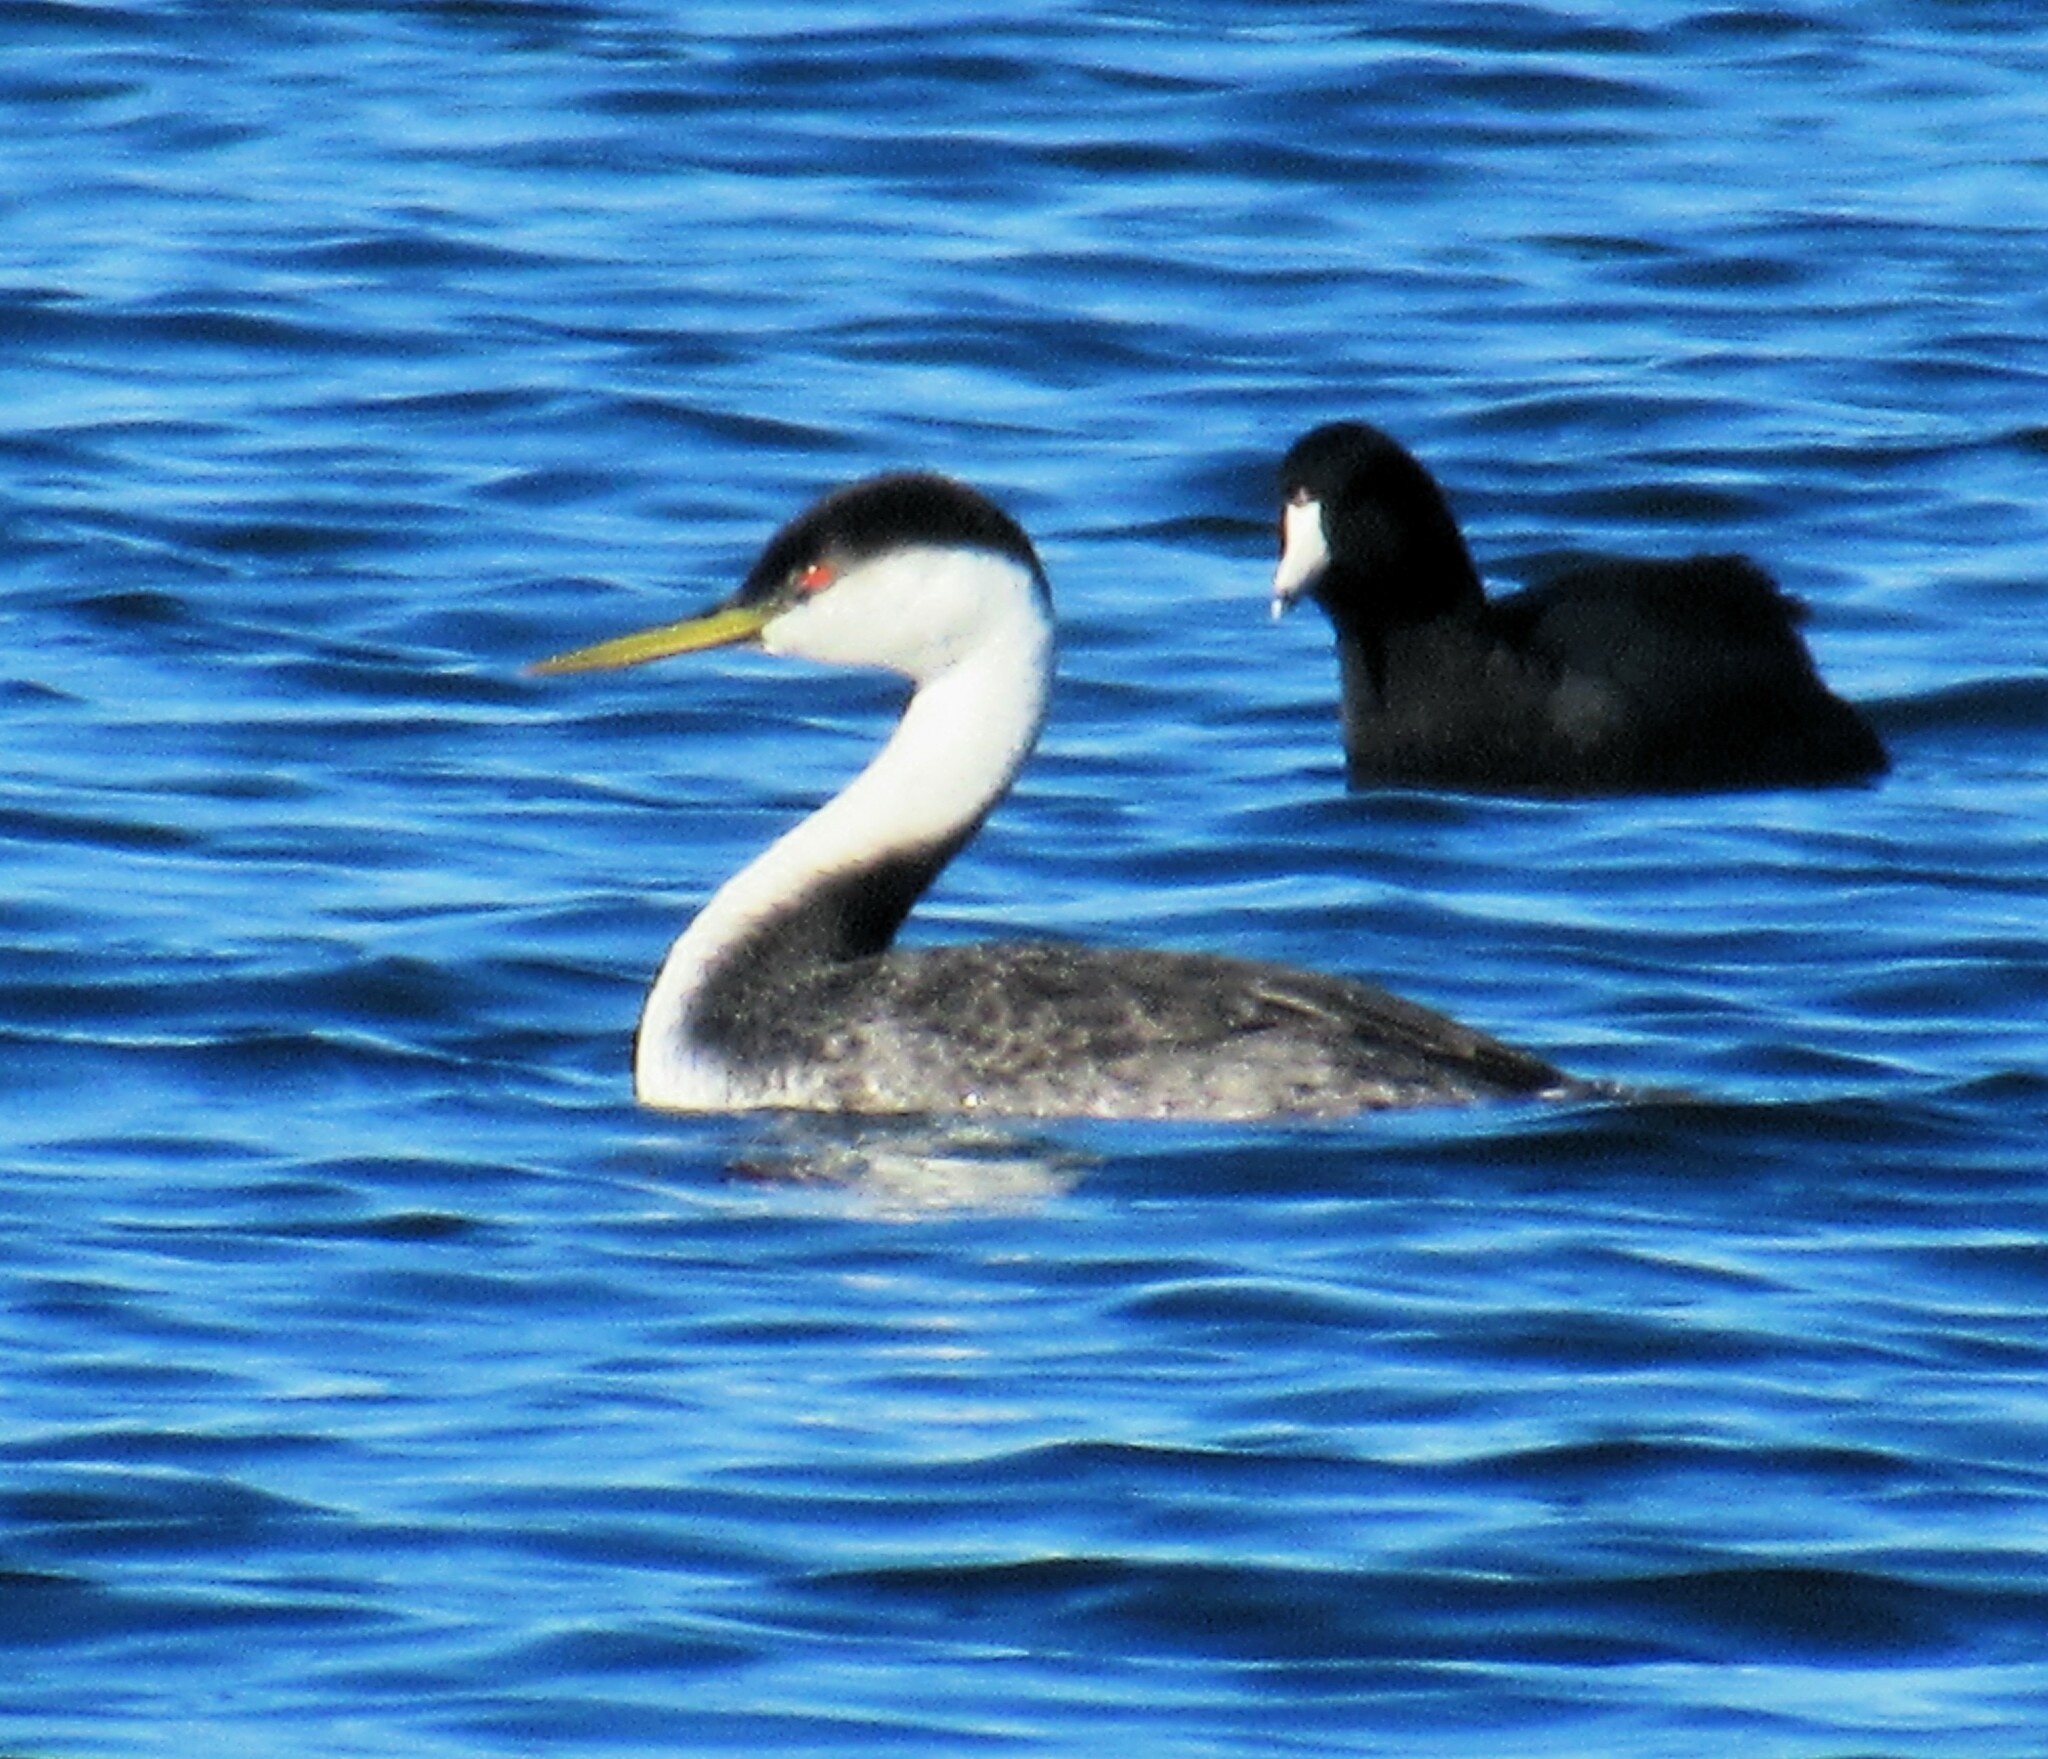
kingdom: Animalia
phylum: Chordata
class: Aves
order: Podicipediformes
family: Podicipedidae
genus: Aechmophorus
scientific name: Aechmophorus occidentalis
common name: Western grebe
